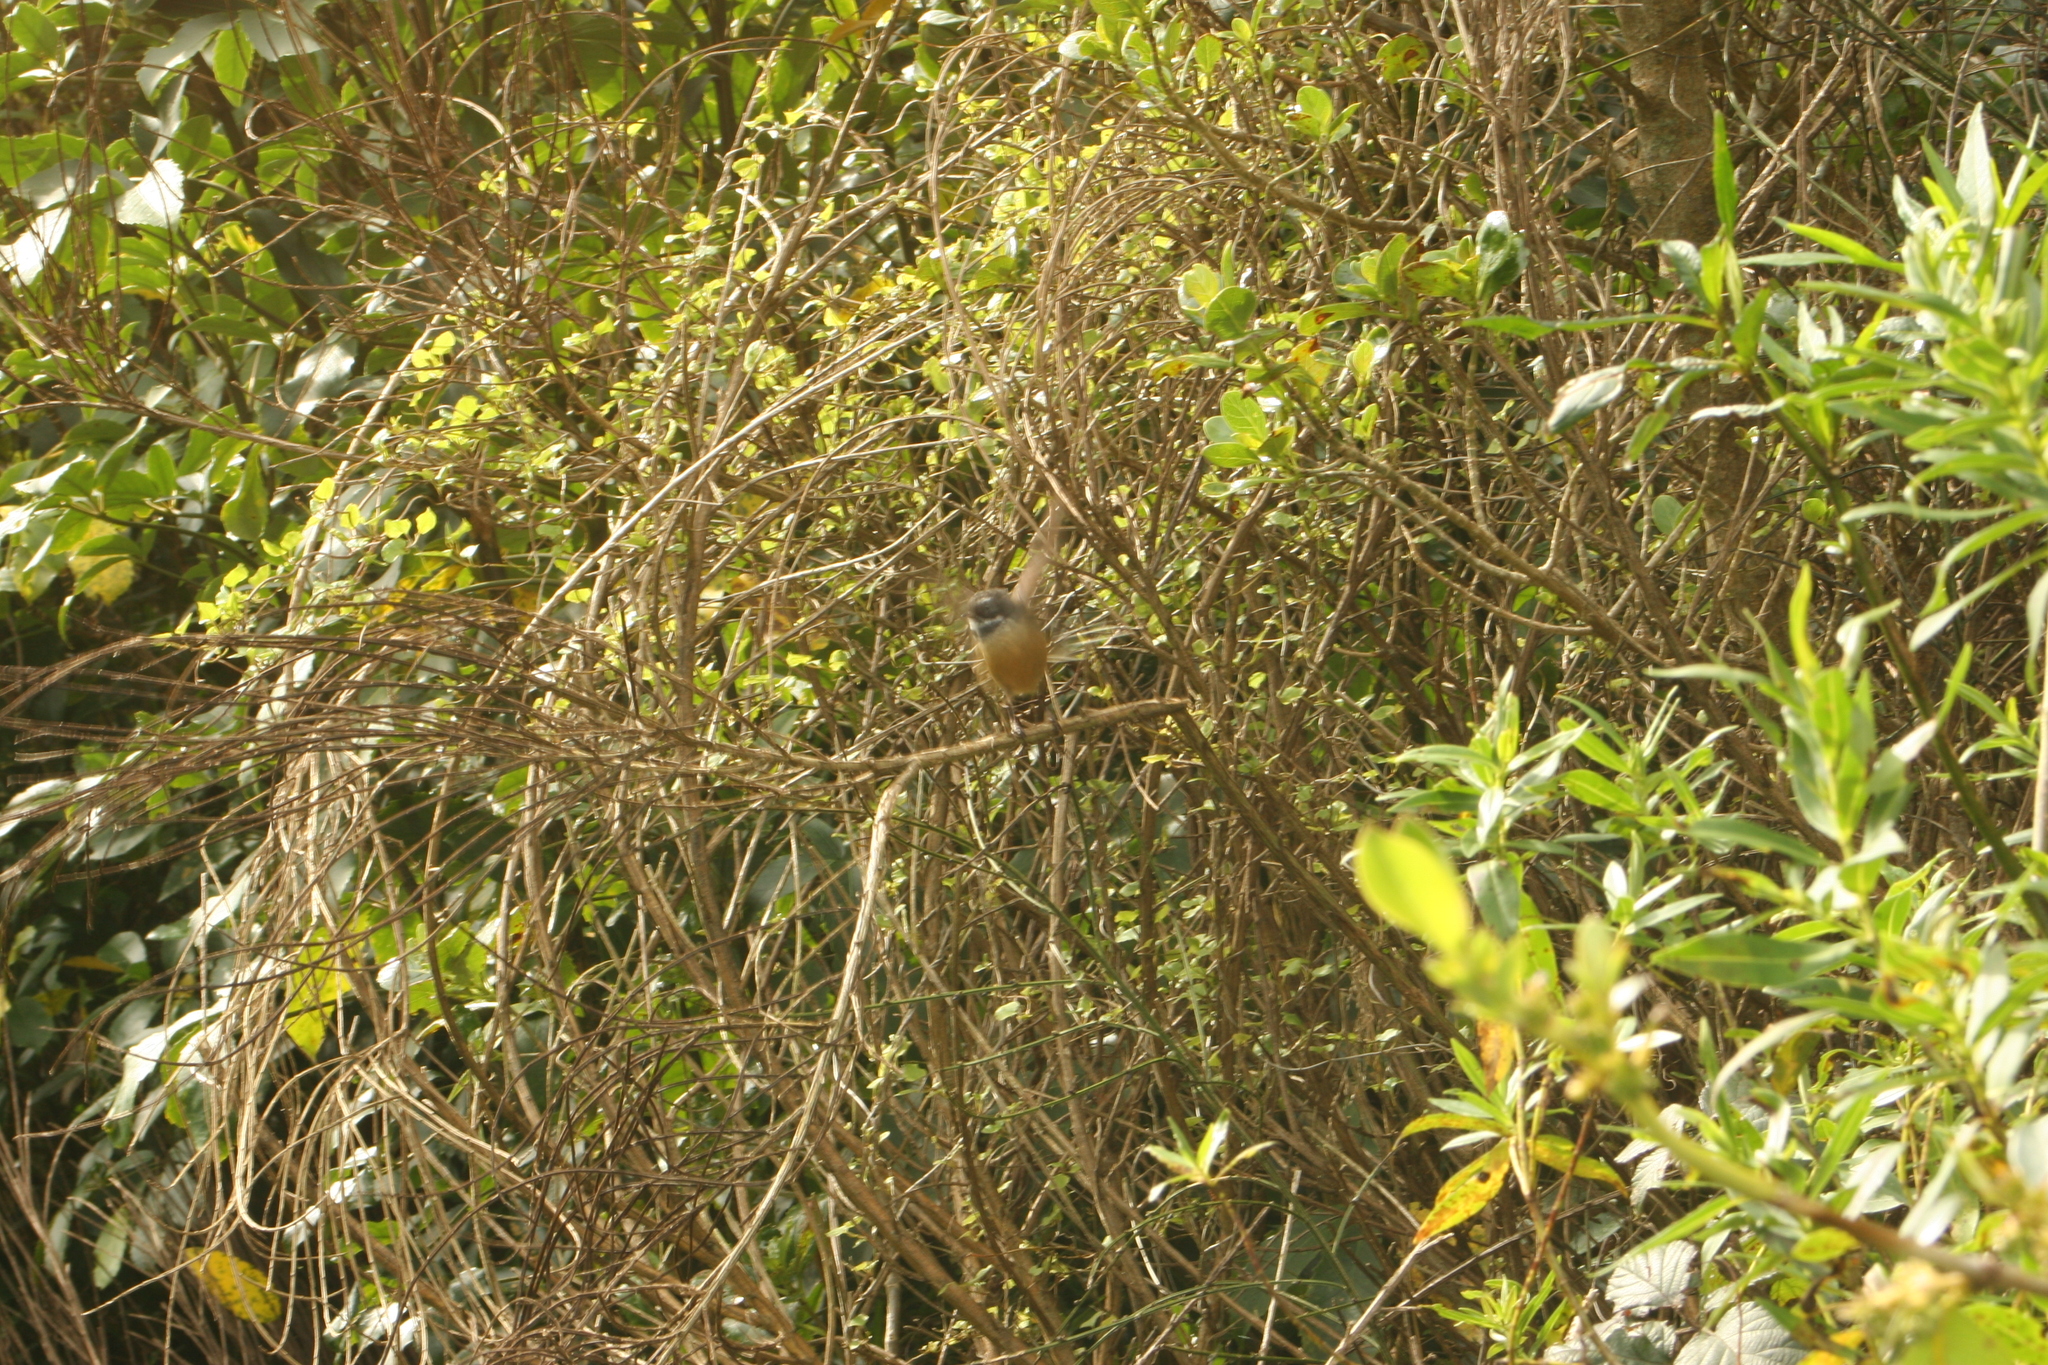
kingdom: Animalia
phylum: Chordata
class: Aves
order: Passeriformes
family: Rhipiduridae
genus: Rhipidura
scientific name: Rhipidura fuliginosa
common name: New zealand fantail
